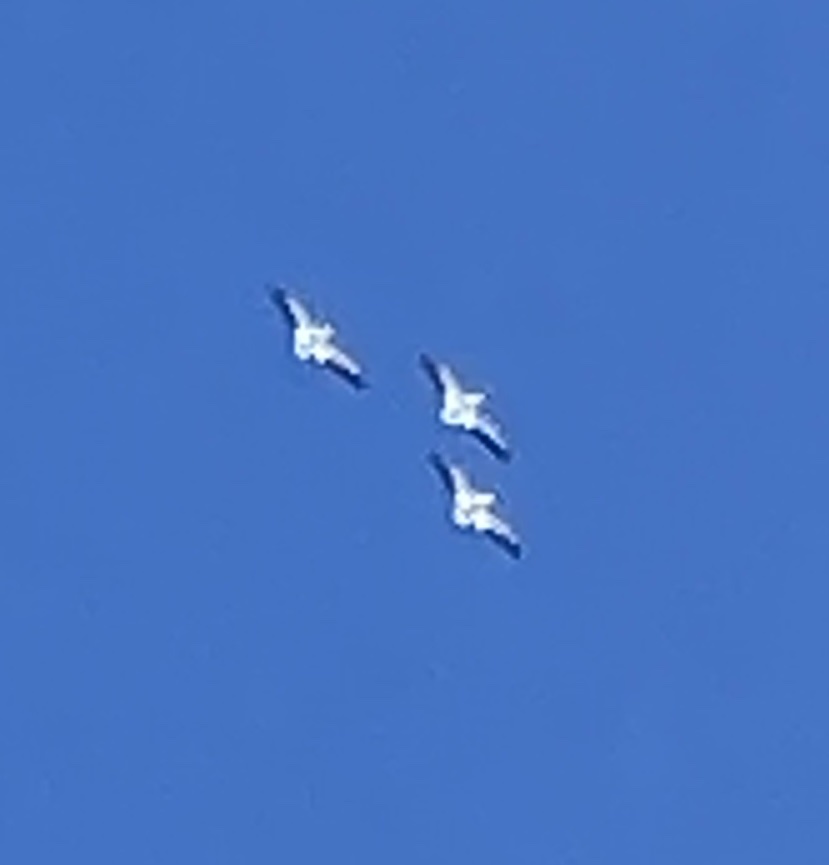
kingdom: Animalia
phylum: Chordata
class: Aves
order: Pelecaniformes
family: Pelecanidae
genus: Pelecanus
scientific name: Pelecanus erythrorhynchos
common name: American white pelican
